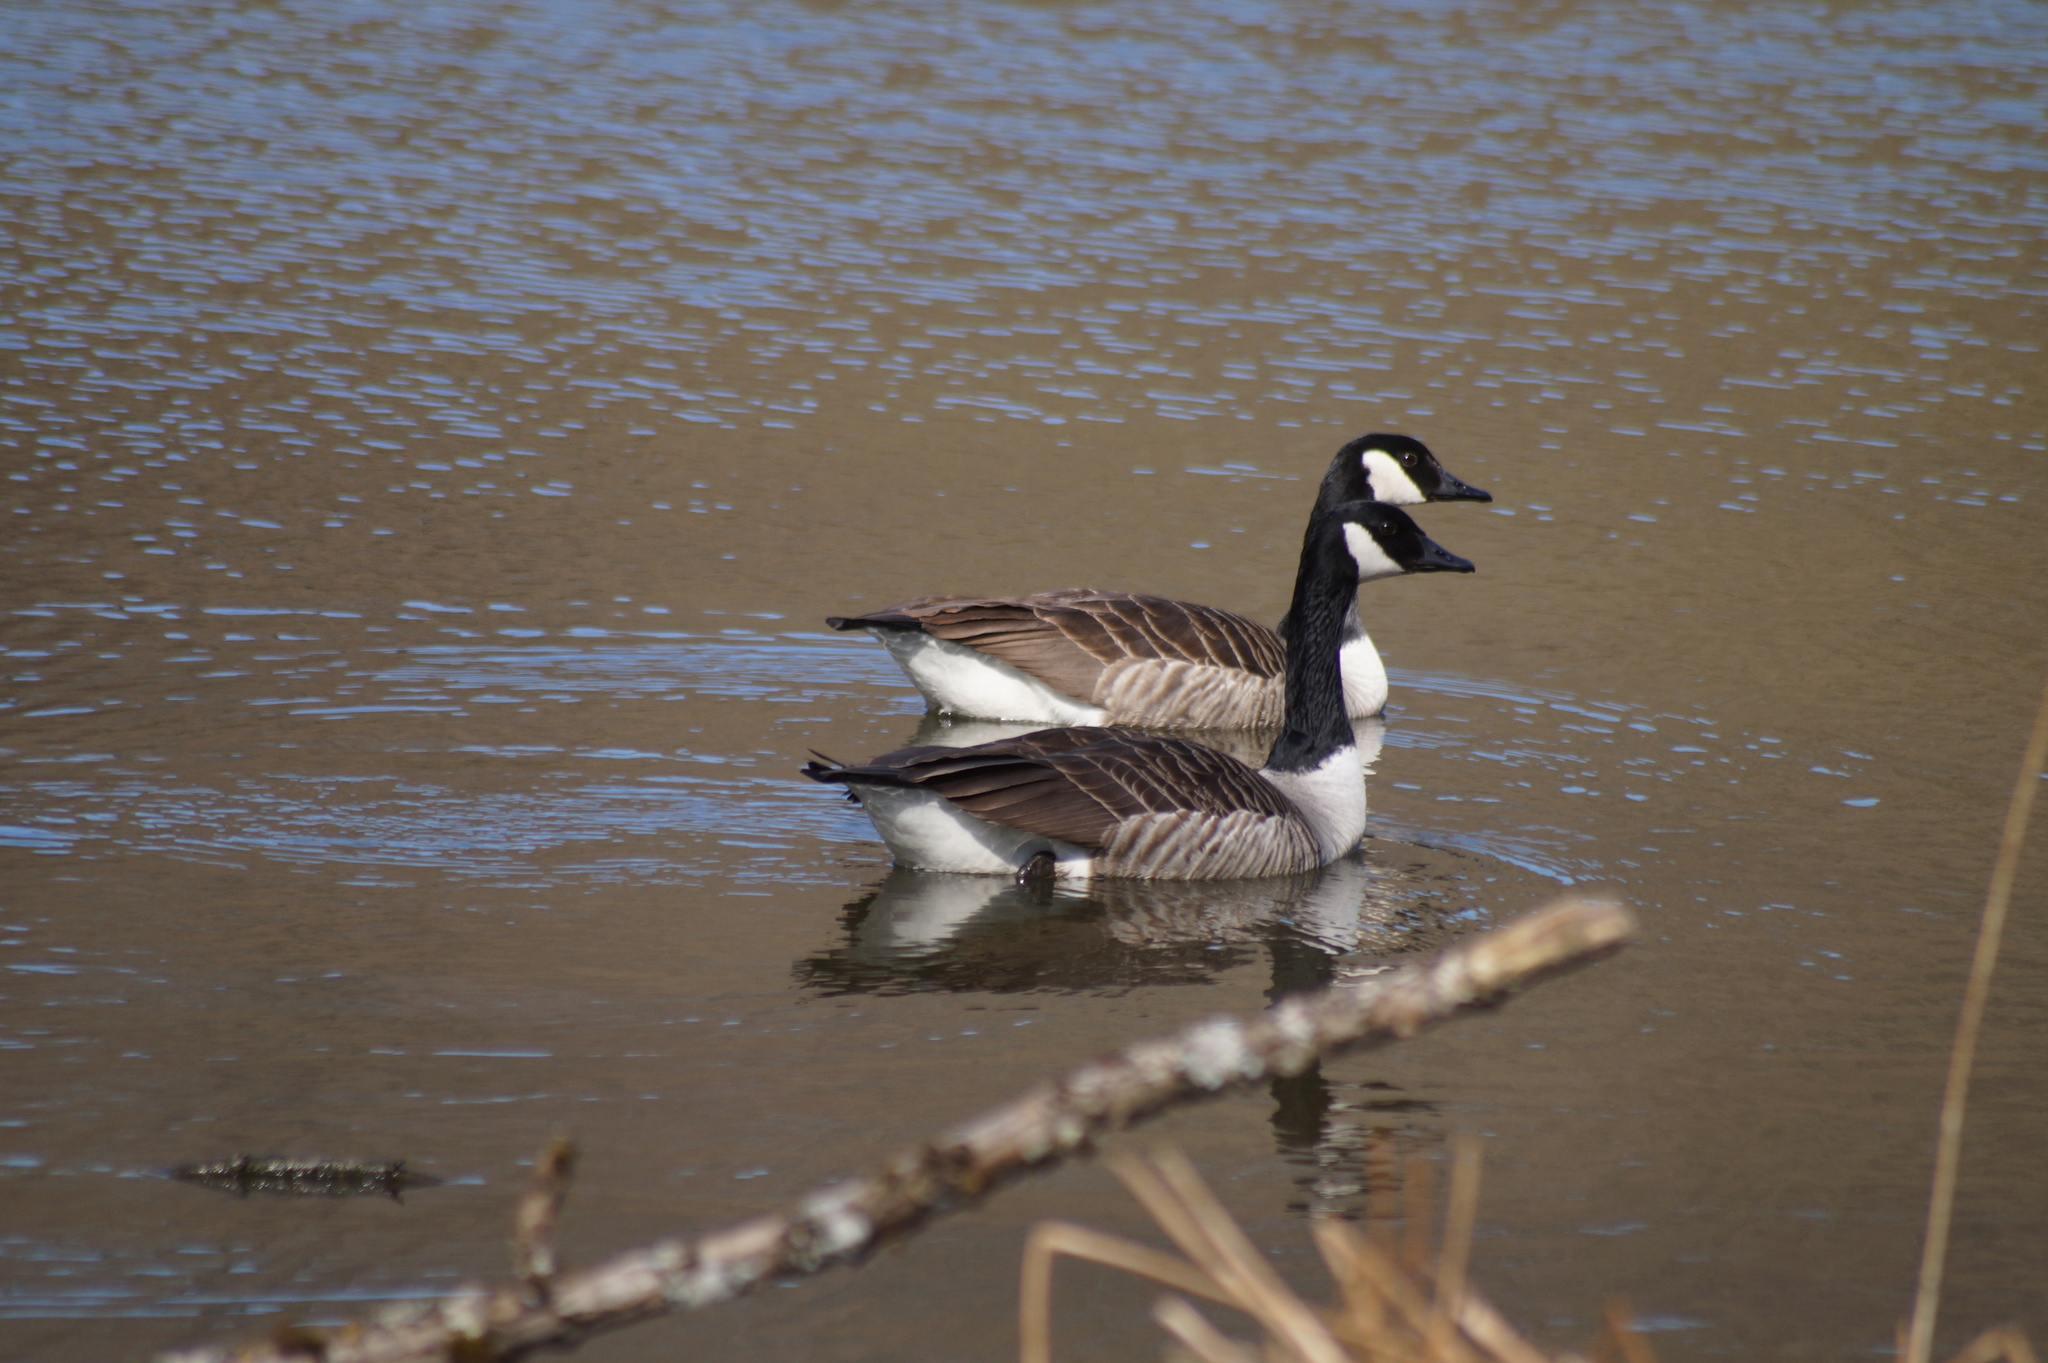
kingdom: Animalia
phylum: Chordata
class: Aves
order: Anseriformes
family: Anatidae
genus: Branta
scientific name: Branta canadensis
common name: Canada goose
